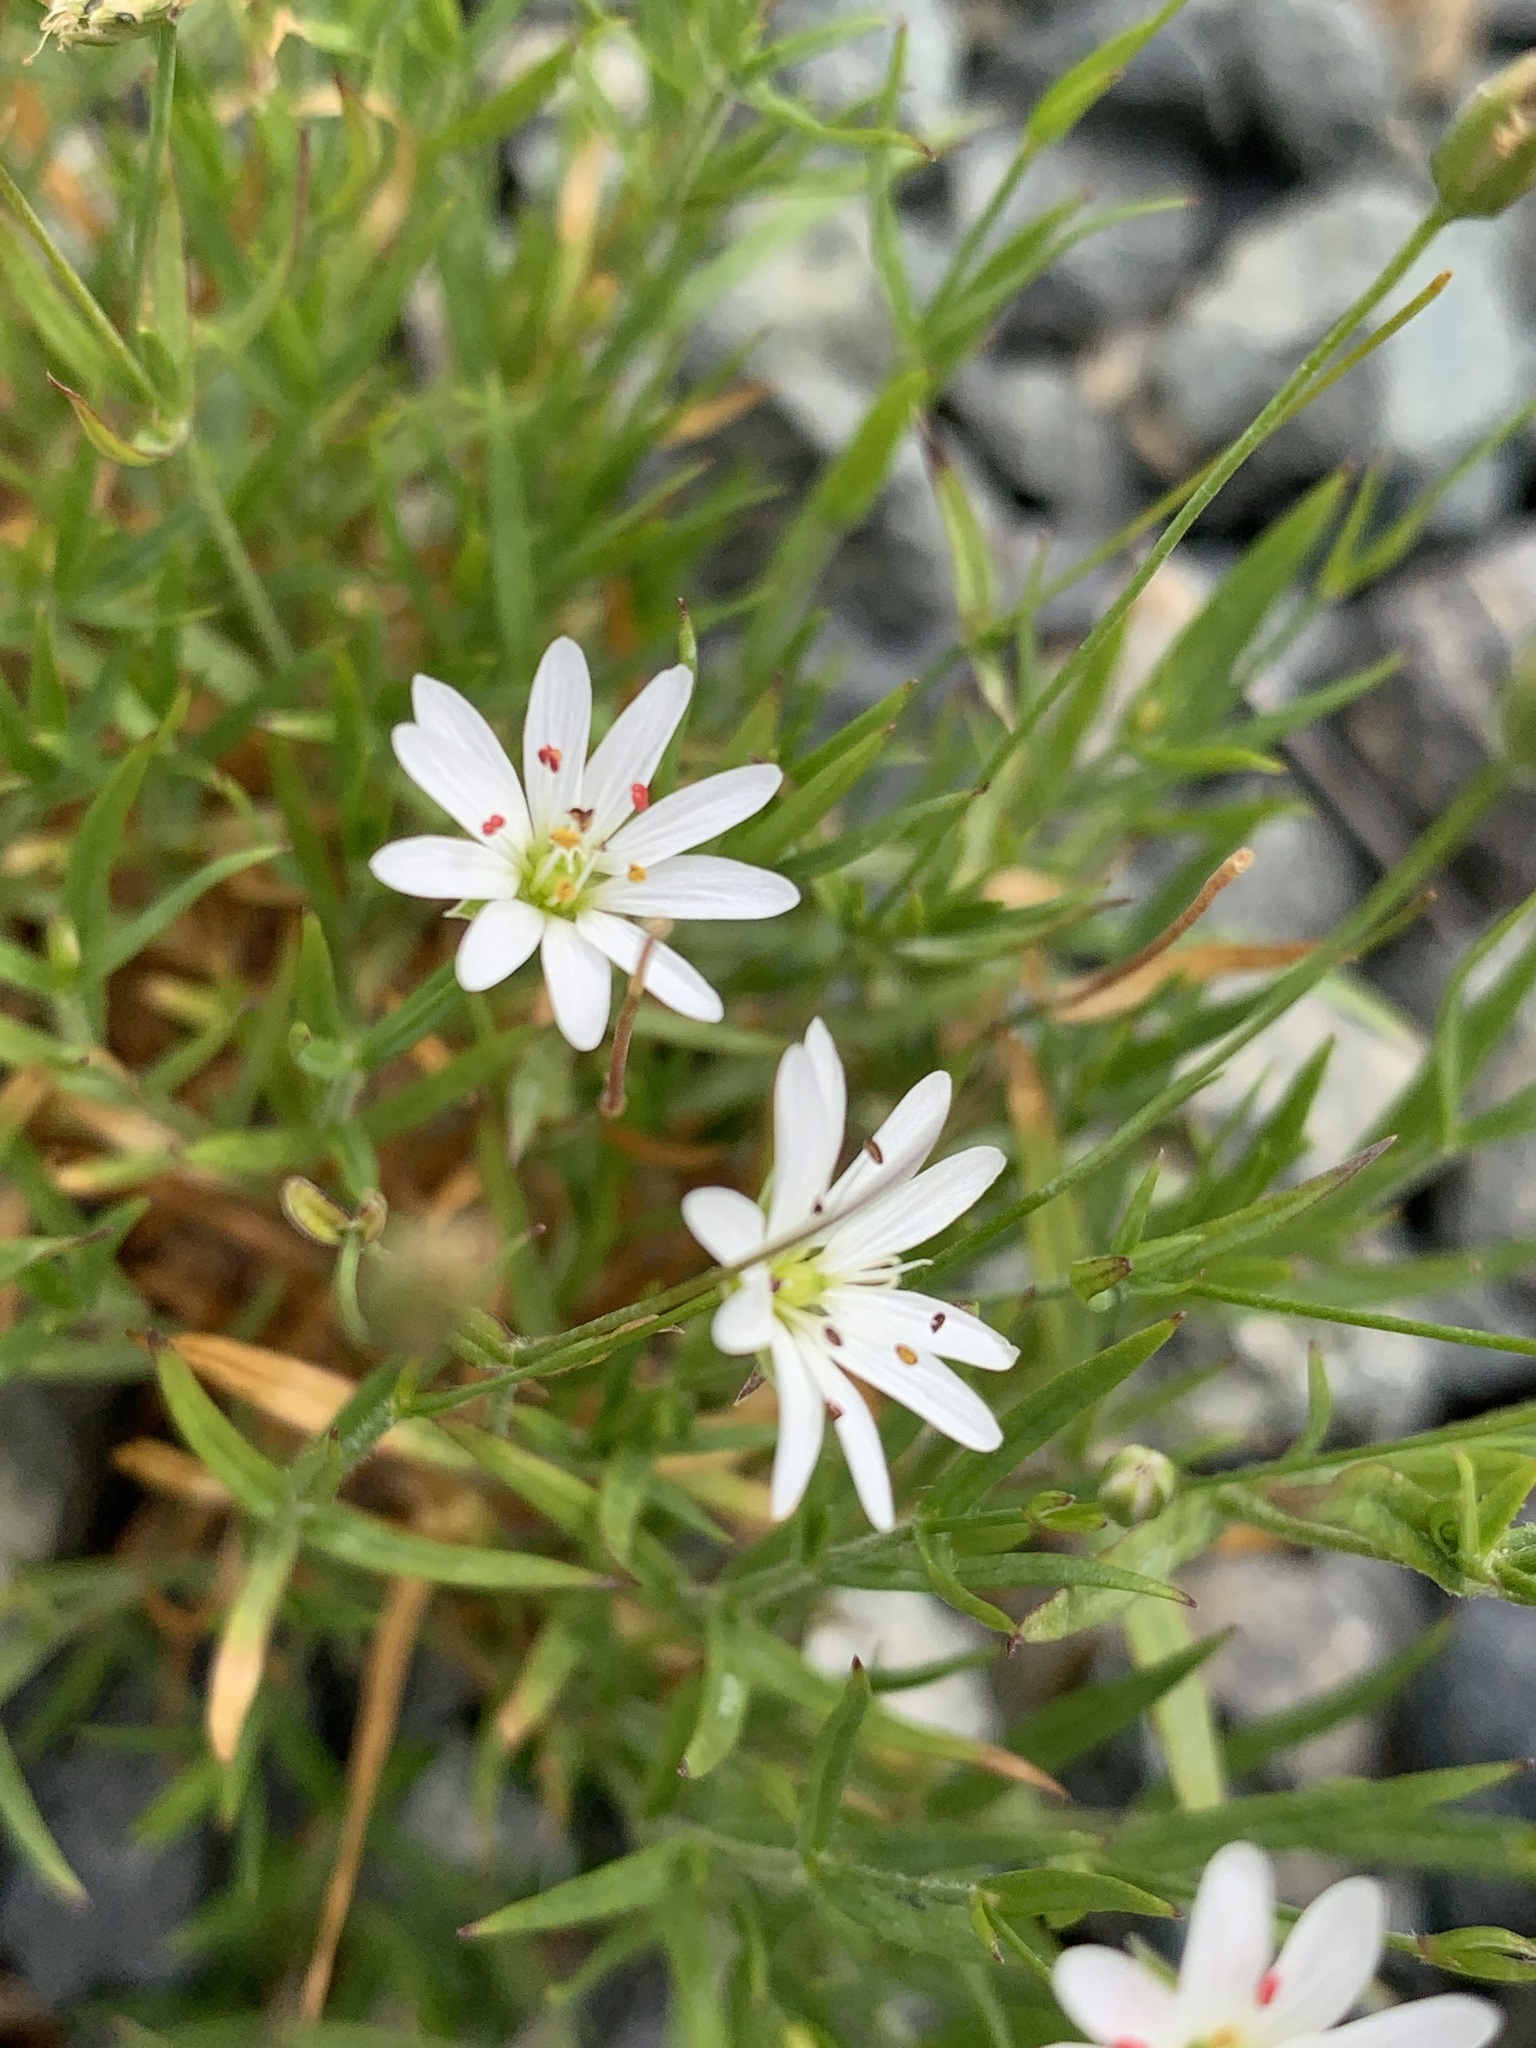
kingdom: Plantae
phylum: Tracheophyta
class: Magnoliopsida
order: Caryophyllales
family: Caryophyllaceae
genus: Stellaria
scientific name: Stellaria peduncularis
